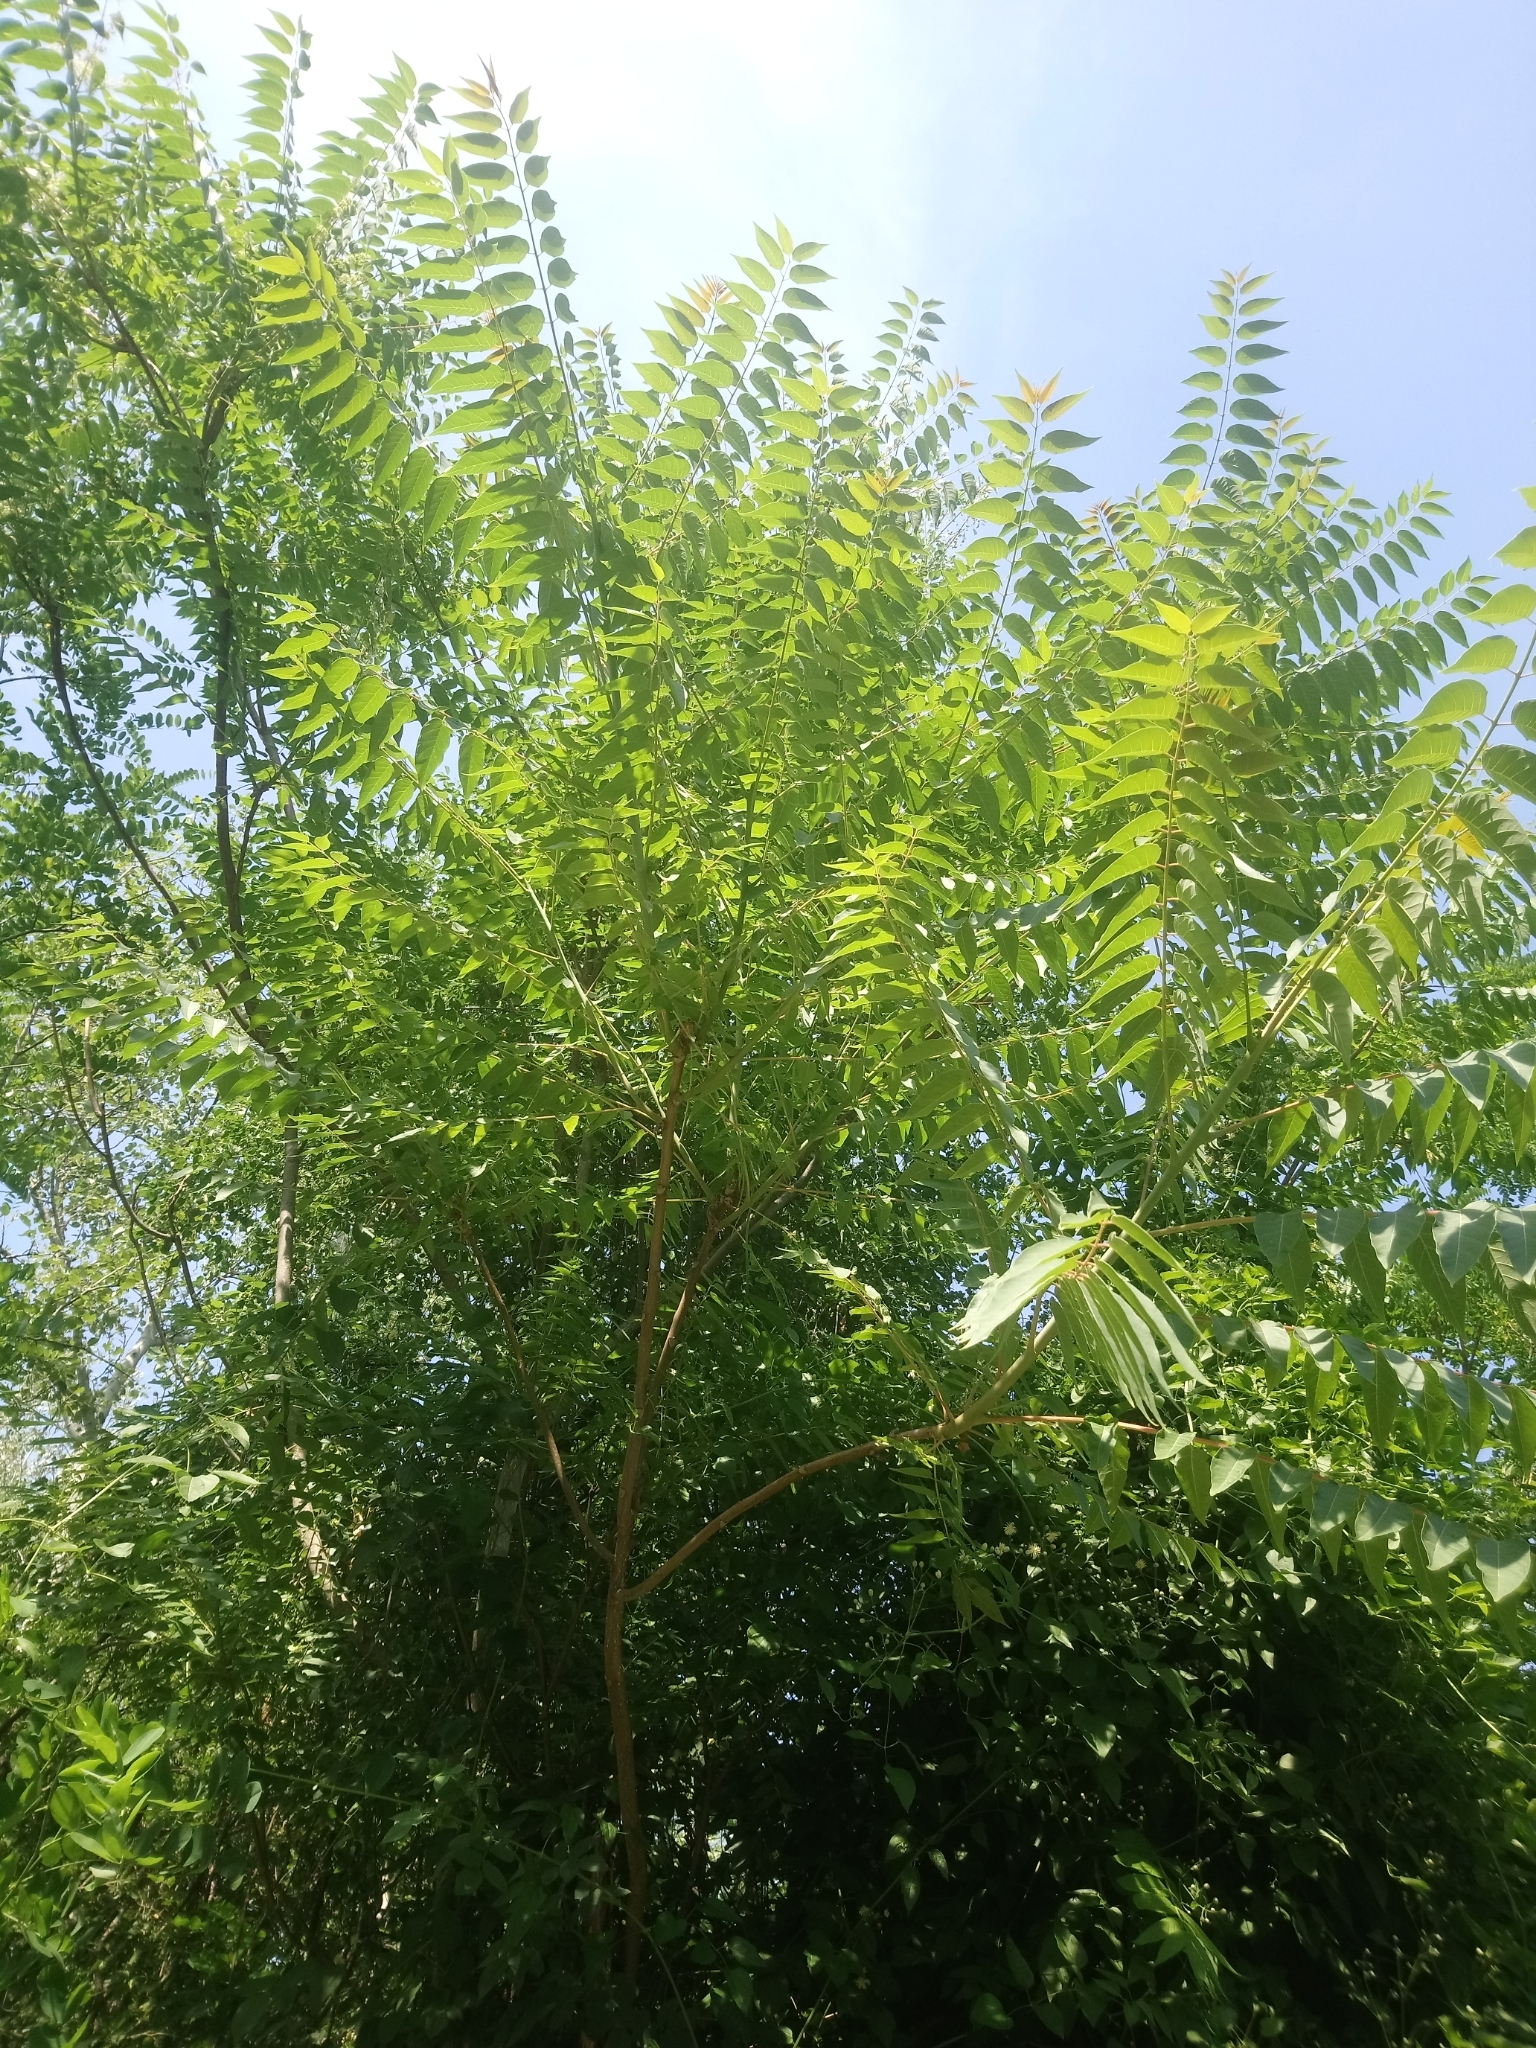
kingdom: Plantae
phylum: Tracheophyta
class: Magnoliopsida
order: Sapindales
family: Simaroubaceae
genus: Ailanthus
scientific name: Ailanthus altissima
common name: Tree-of-heaven
